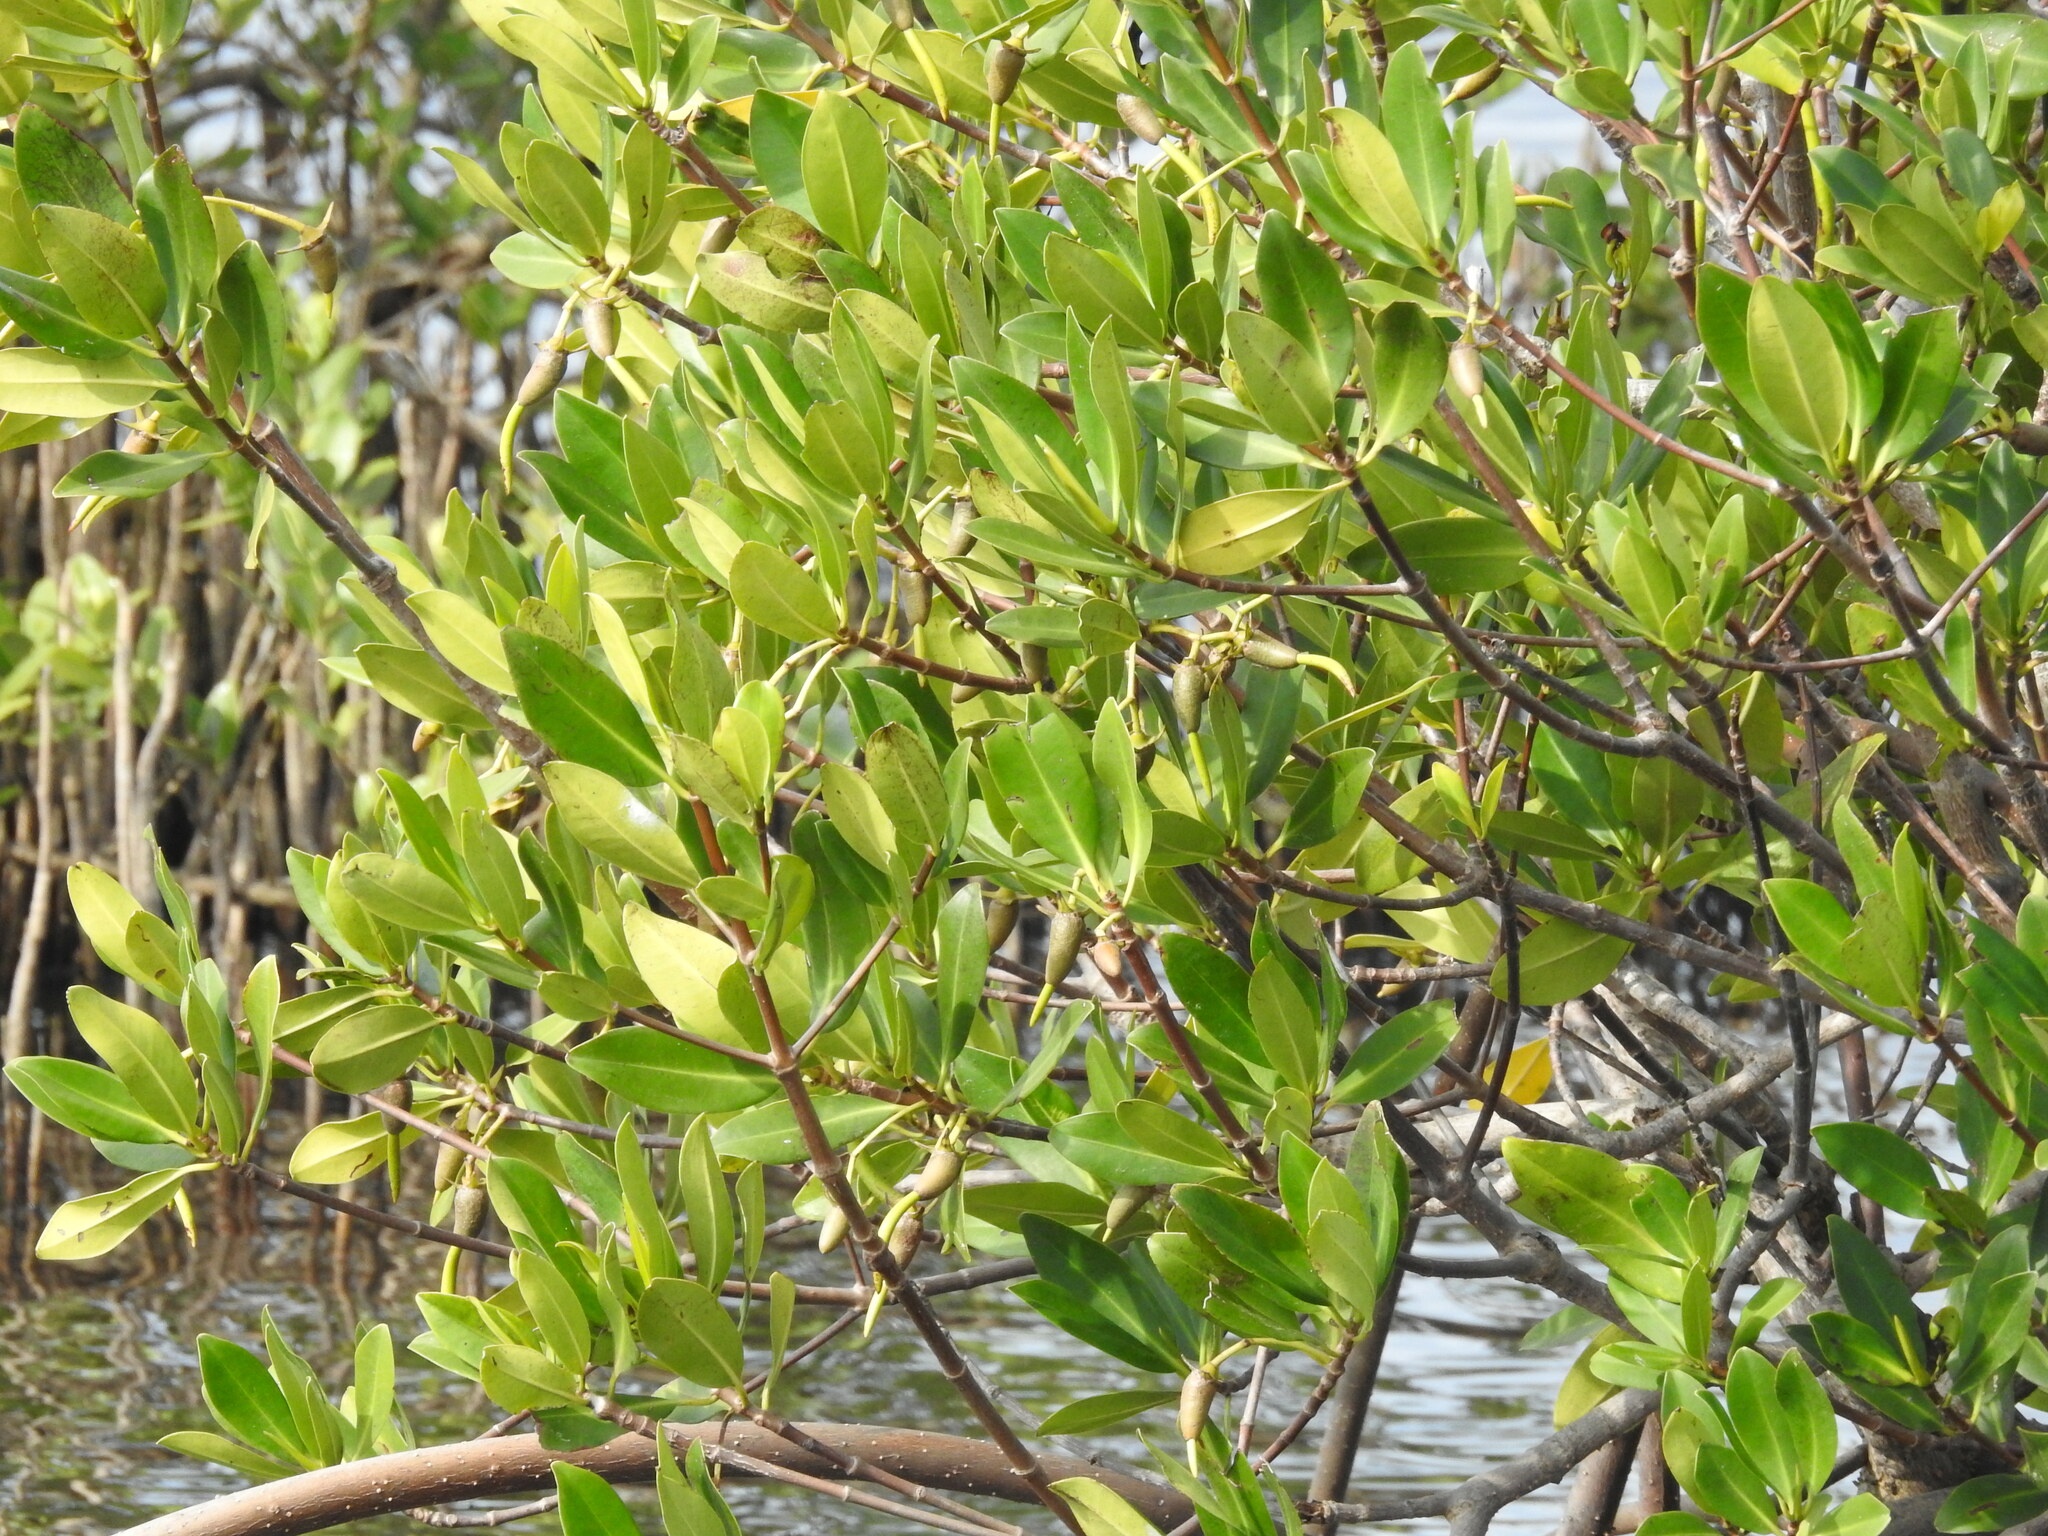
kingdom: Plantae
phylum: Tracheophyta
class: Magnoliopsida
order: Malpighiales
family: Rhizophoraceae
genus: Rhizophora
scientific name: Rhizophora mangle
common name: Red mangrove
